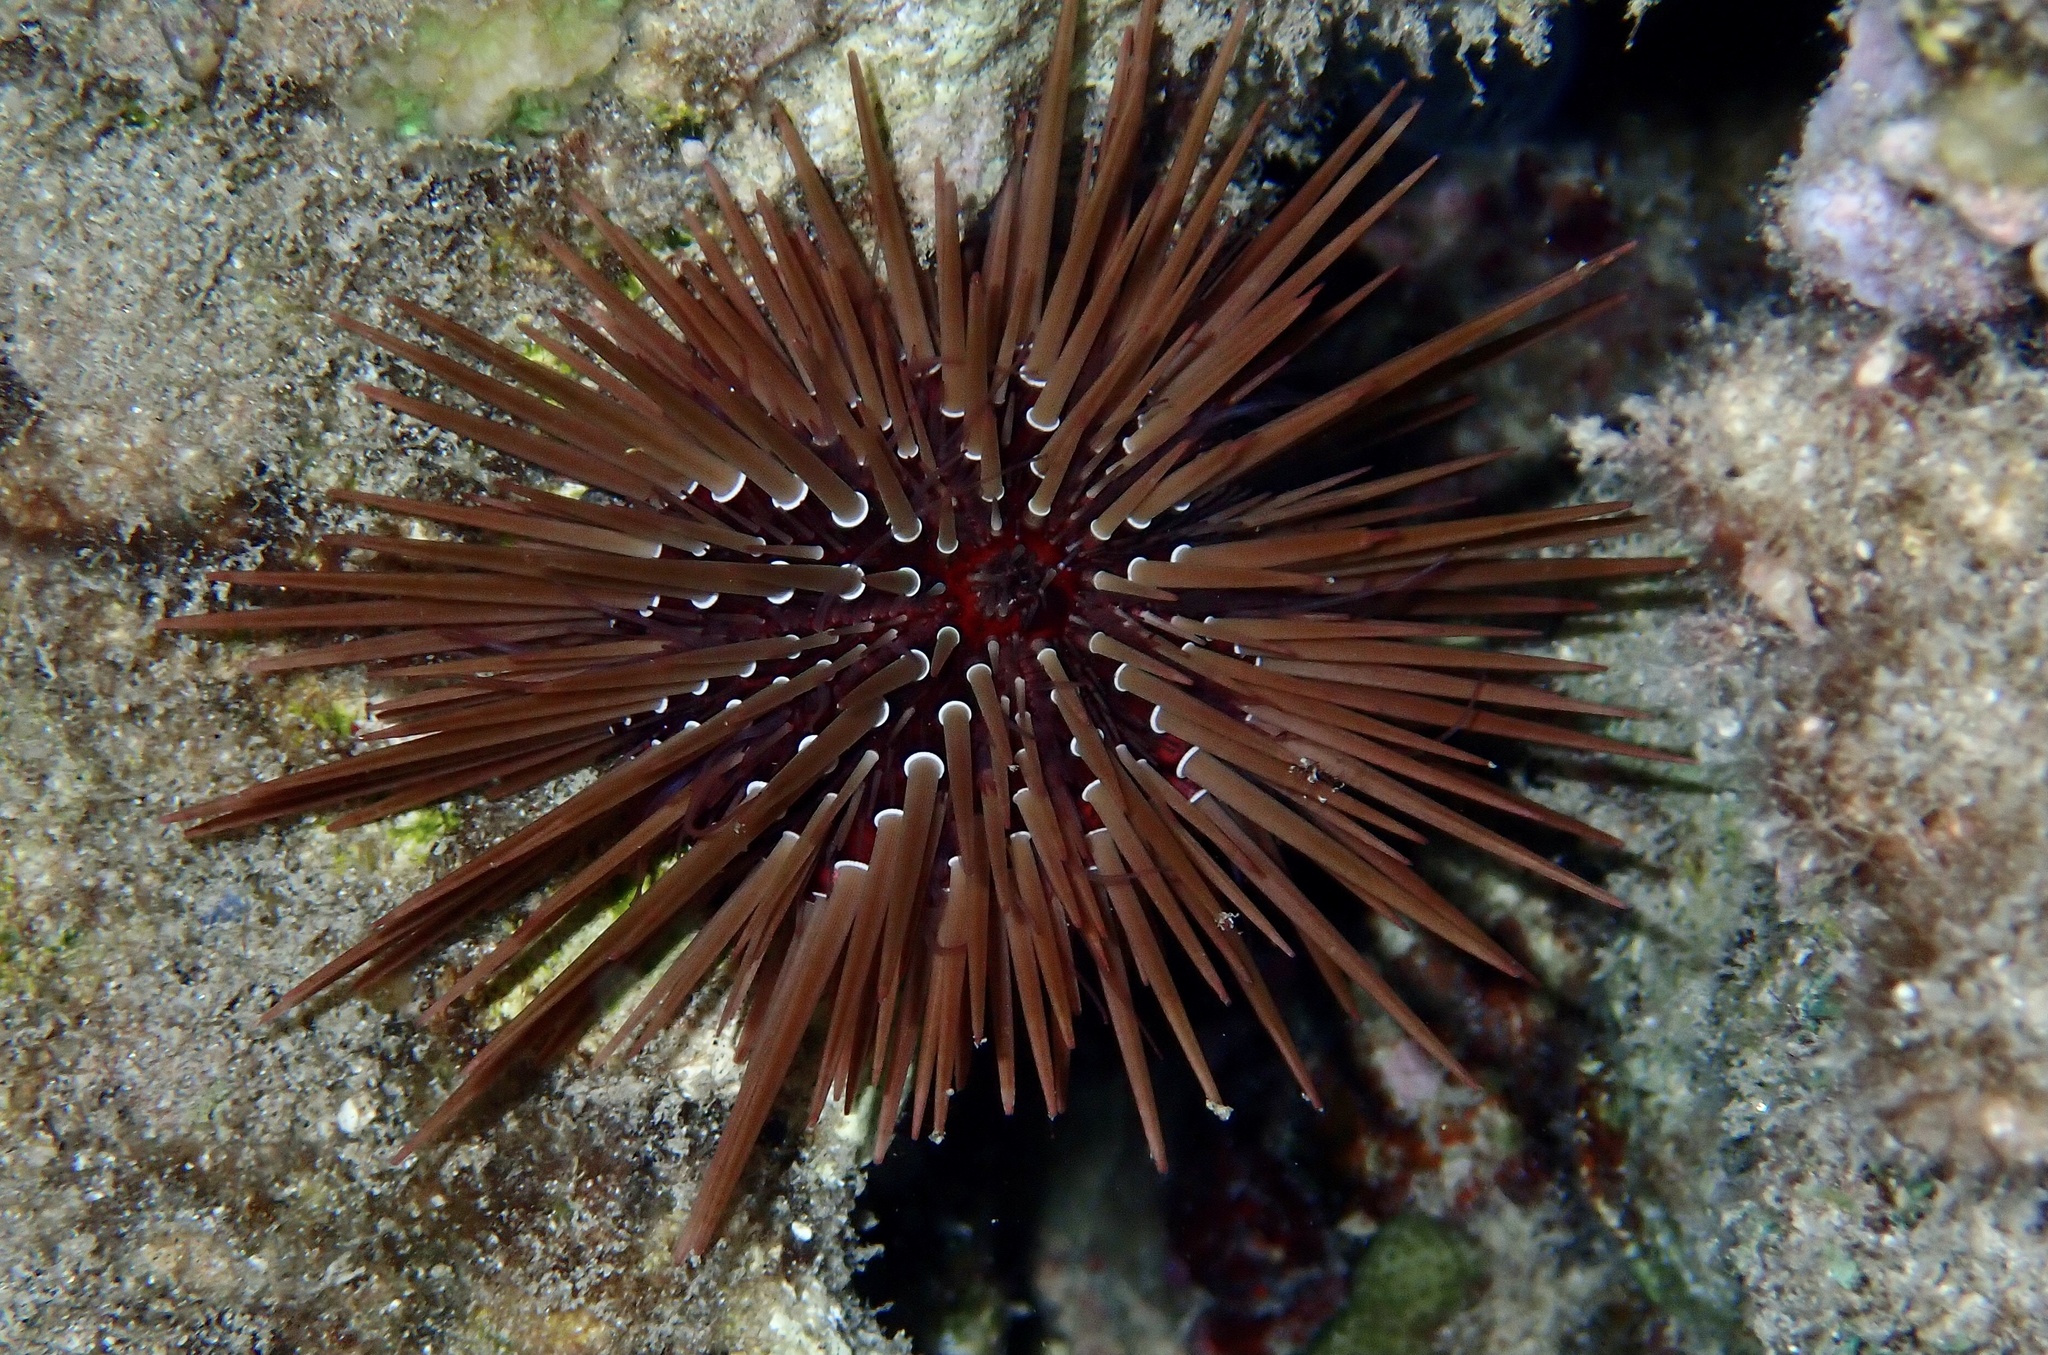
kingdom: Animalia
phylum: Echinodermata
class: Echinoidea
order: Camarodonta
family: Echinometridae
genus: Echinometra
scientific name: Echinometra mathaei
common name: Rock-boring urchin
